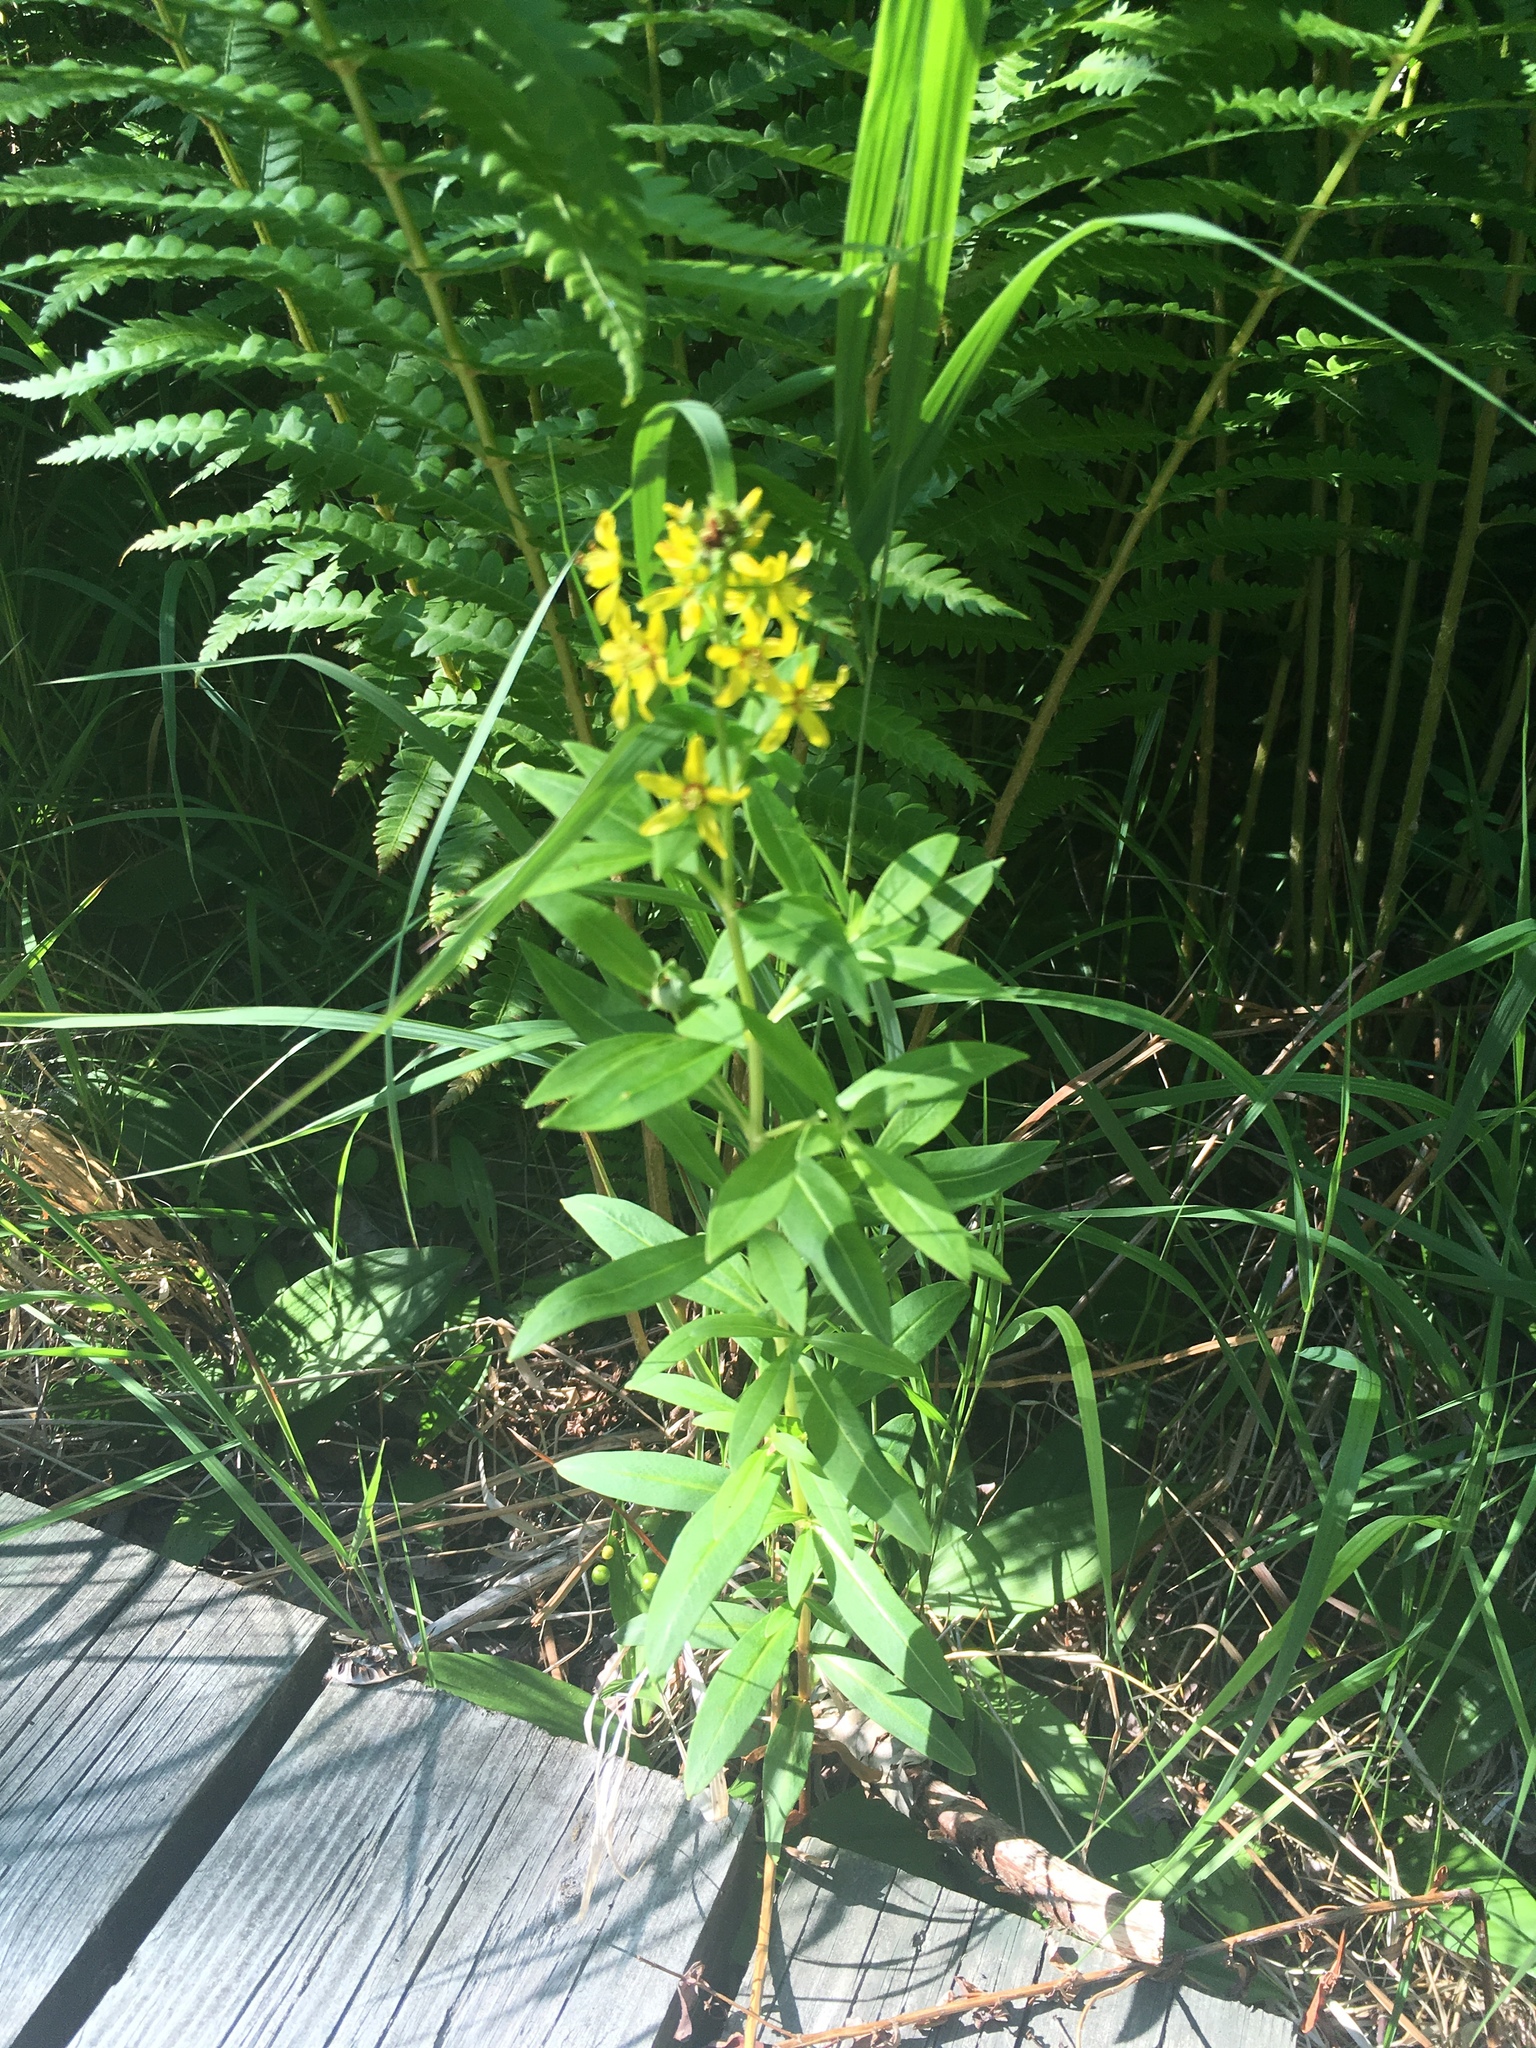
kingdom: Plantae
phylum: Tracheophyta
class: Magnoliopsida
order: Ericales
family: Primulaceae
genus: Lysimachia
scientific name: Lysimachia terrestris
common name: Lake loosestrife
